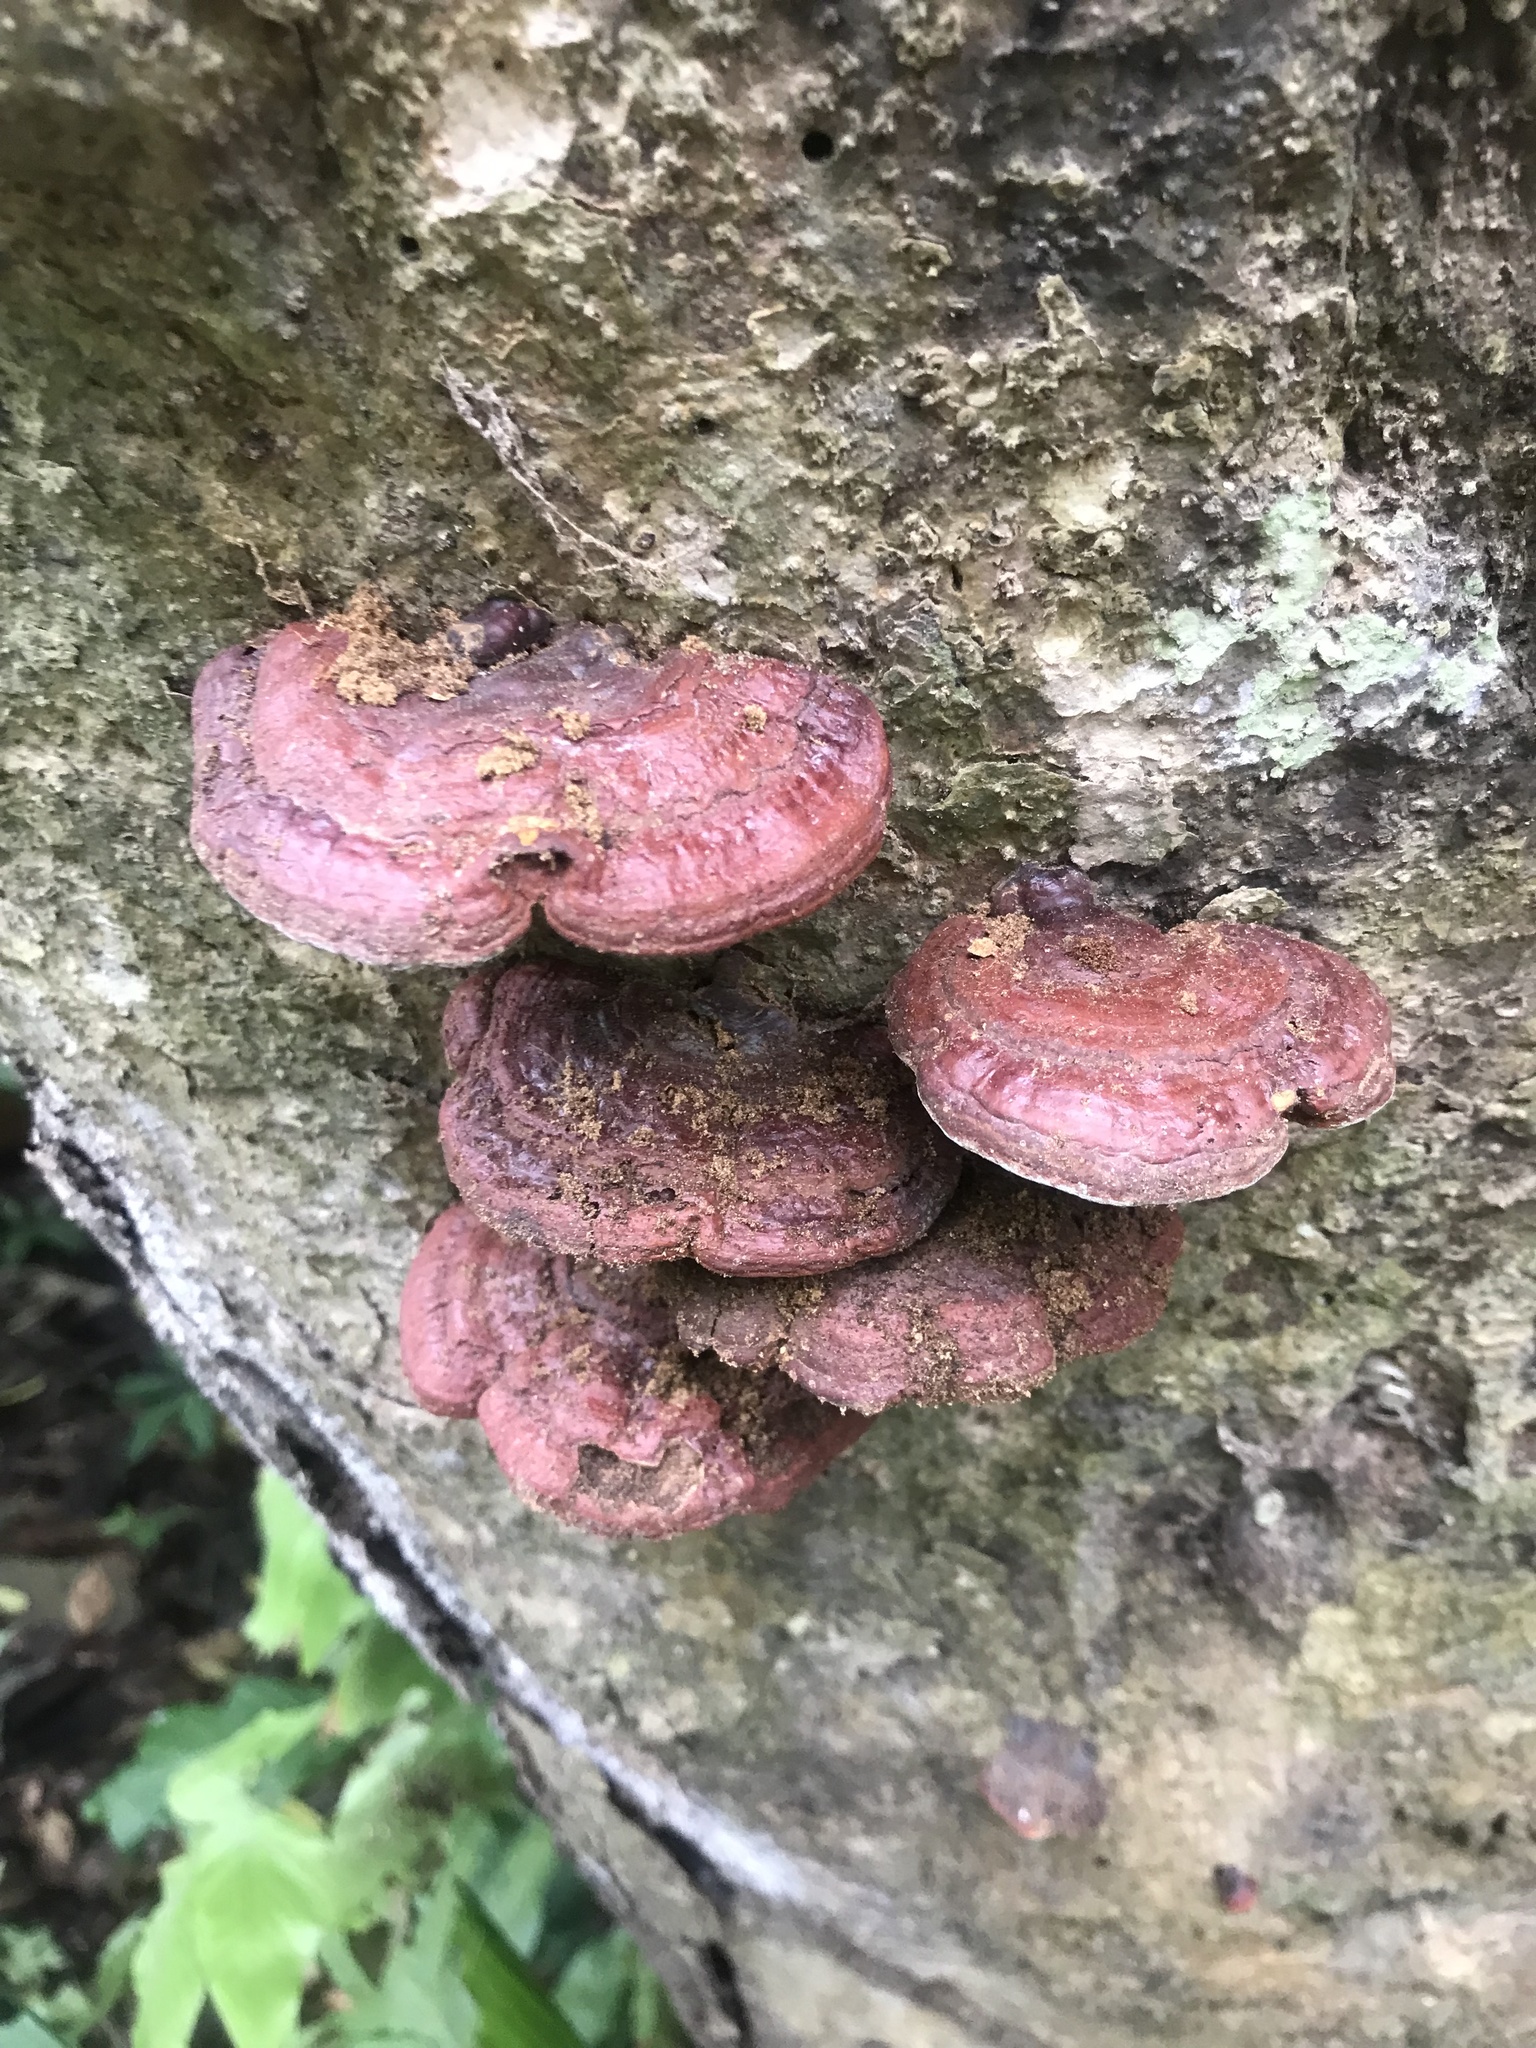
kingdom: Fungi
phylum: Basidiomycota
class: Agaricomycetes
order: Polyporales
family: Polyporaceae
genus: Ganoderma
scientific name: Ganoderma resinaceum
